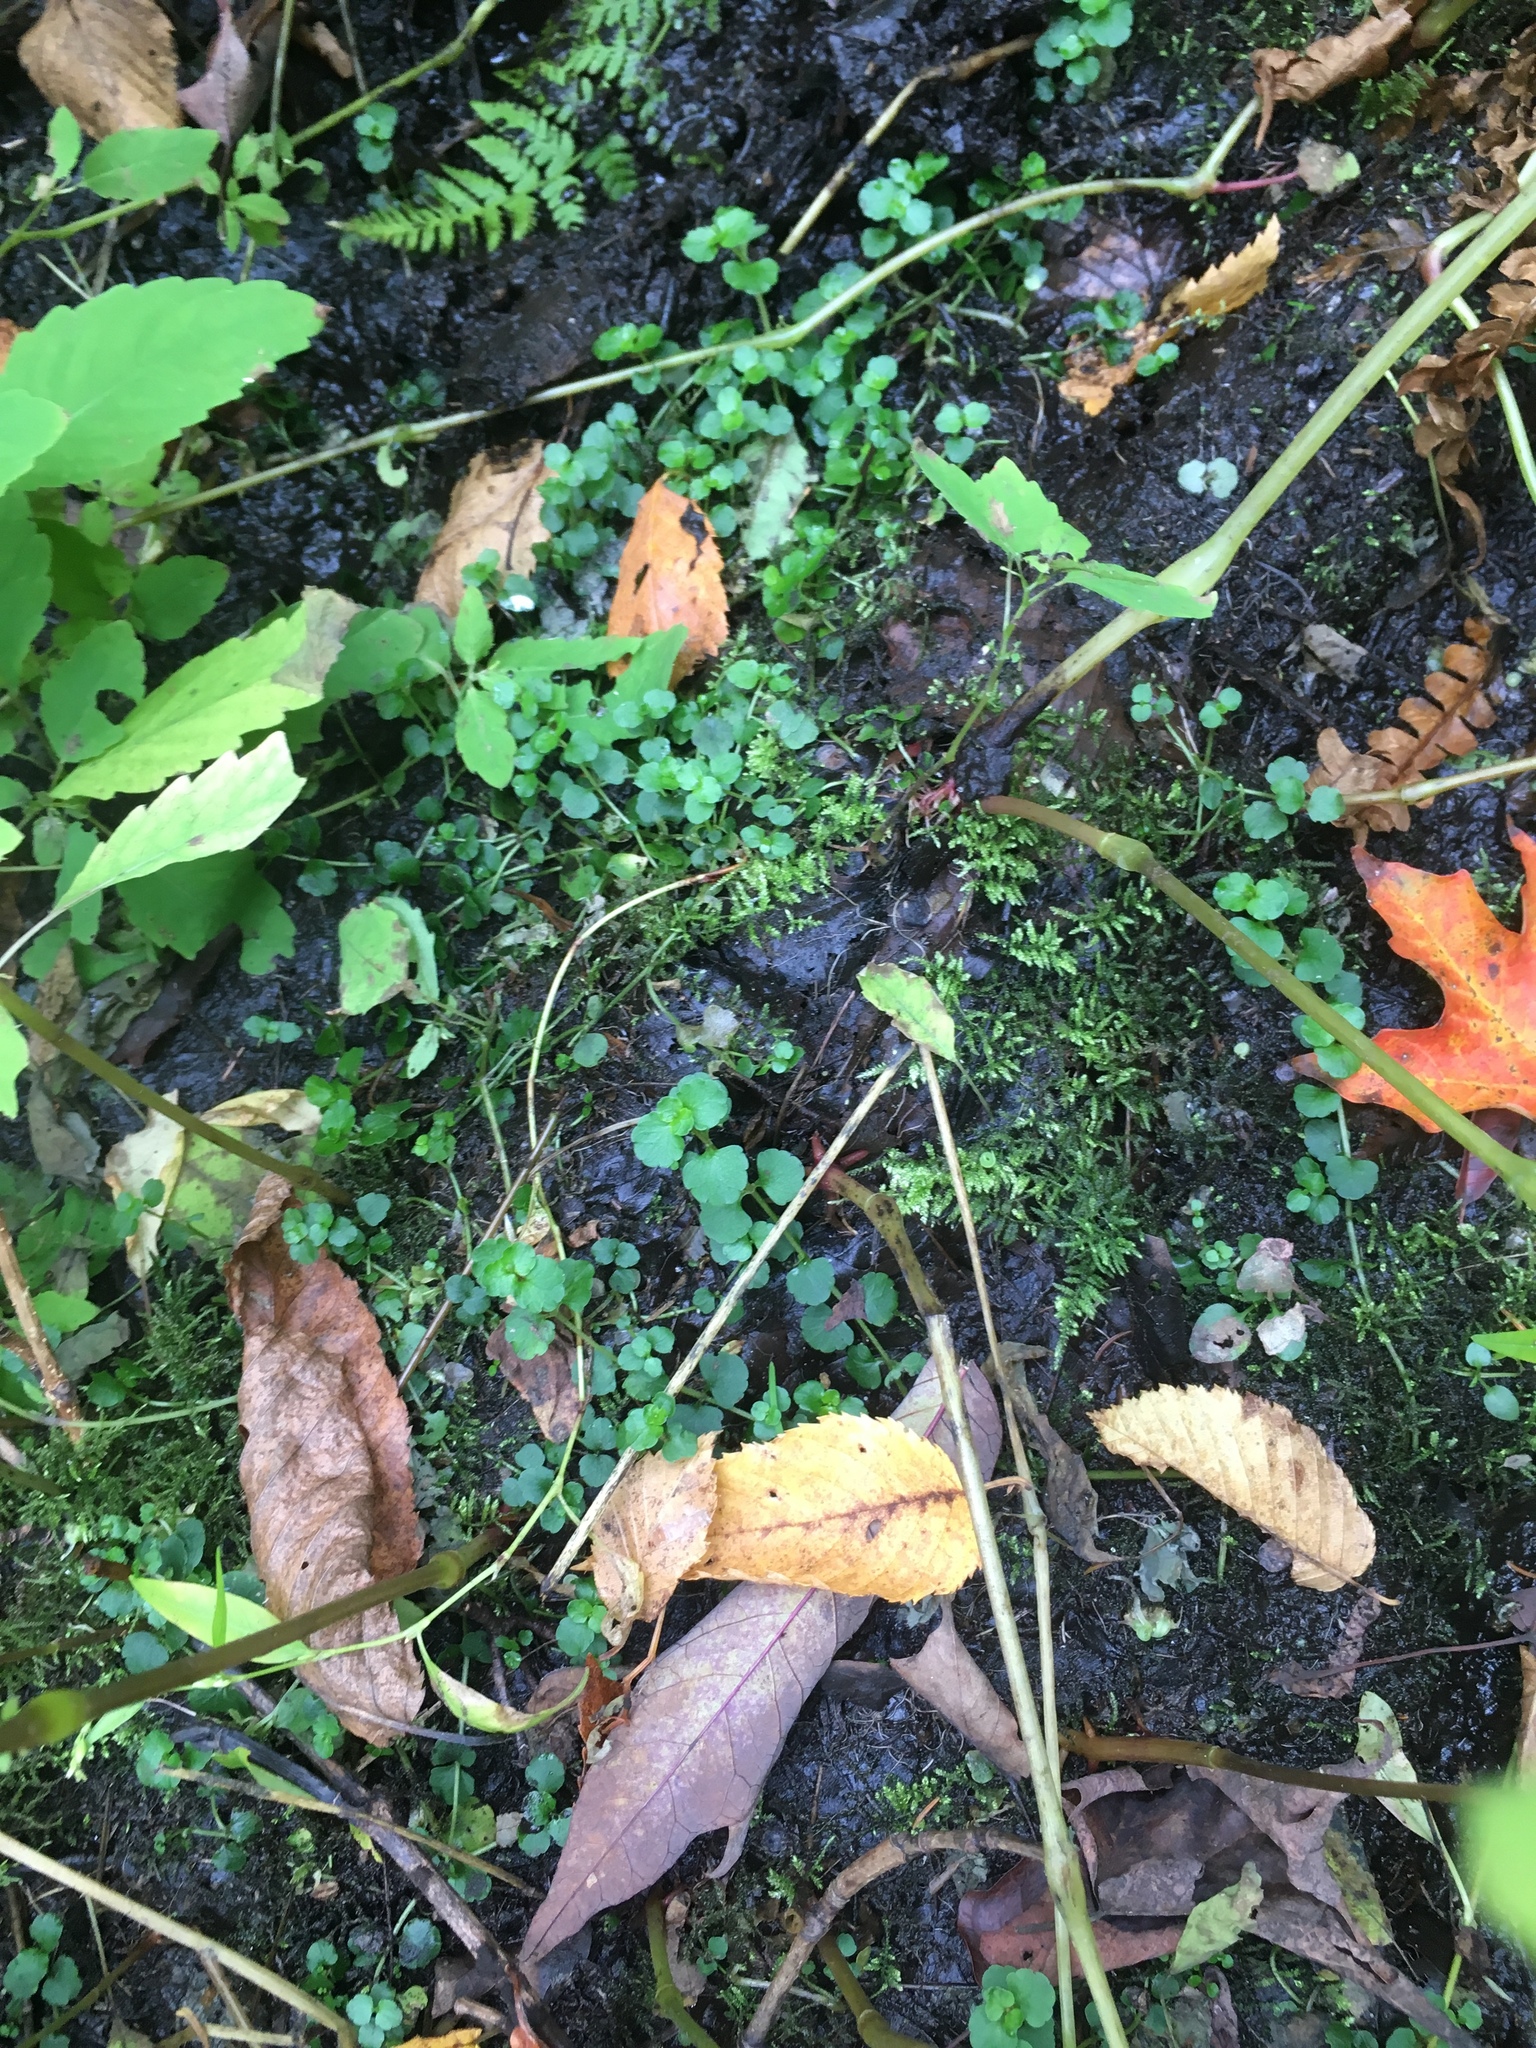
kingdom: Plantae
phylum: Tracheophyta
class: Magnoliopsida
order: Saxifragales
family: Saxifragaceae
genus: Chrysosplenium
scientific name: Chrysosplenium americanum
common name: American golden-saxifrage
